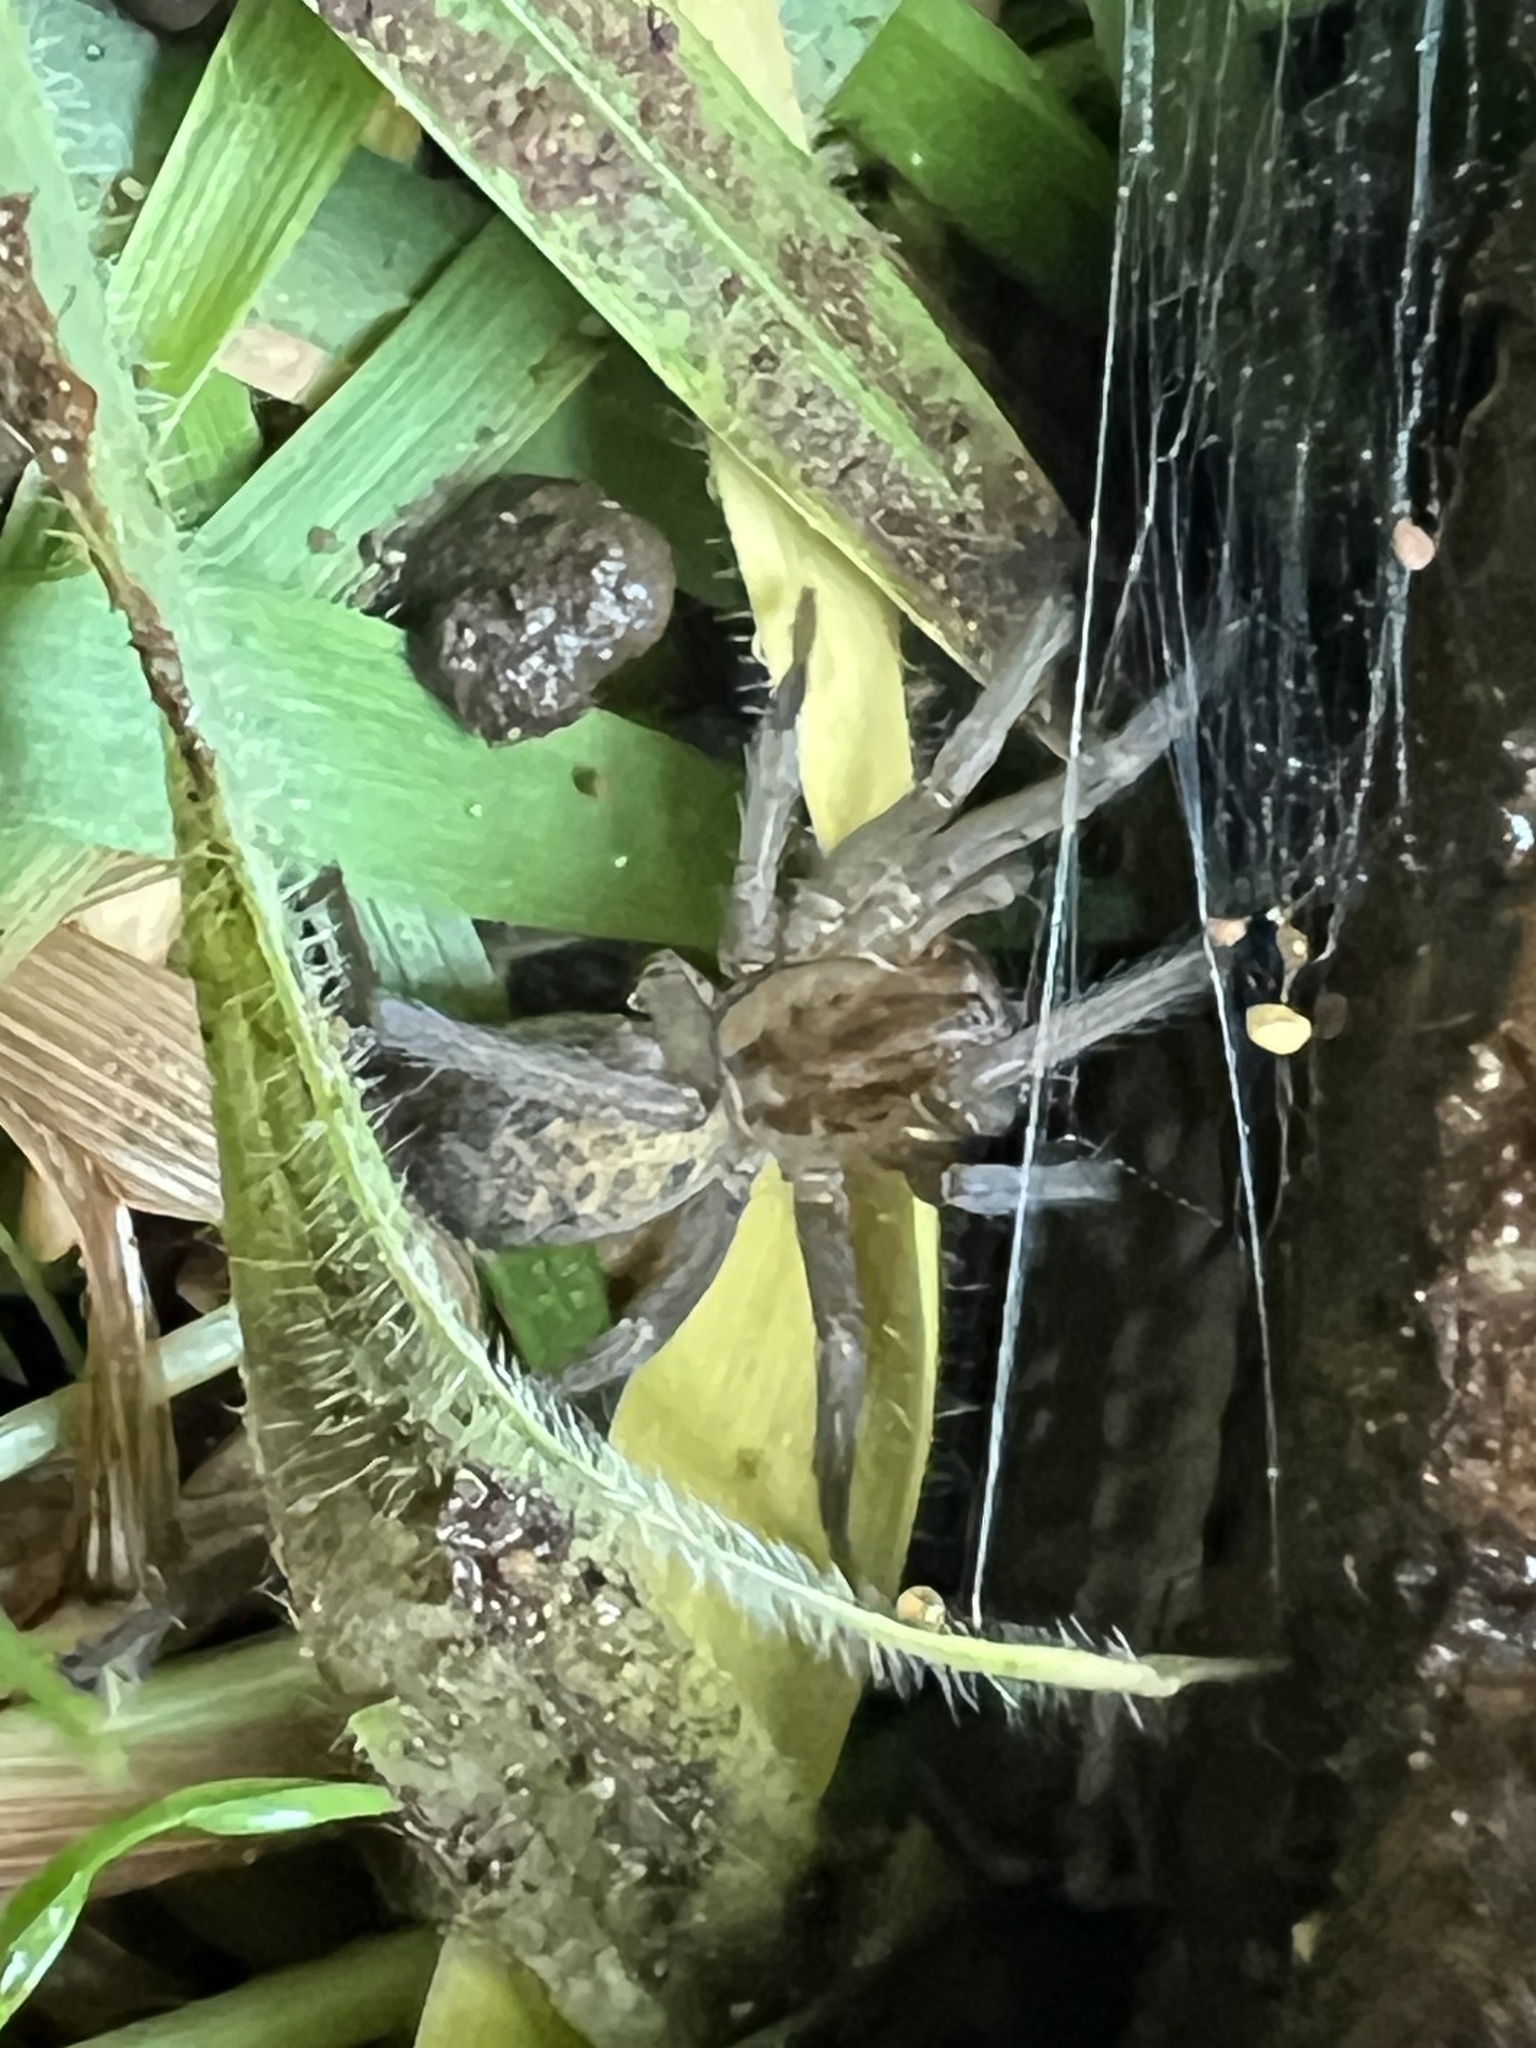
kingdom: Animalia
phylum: Arthropoda
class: Arachnida
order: Araneae
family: Agelenidae
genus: Eratigena
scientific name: Eratigena agrestis
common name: Hobo spider
